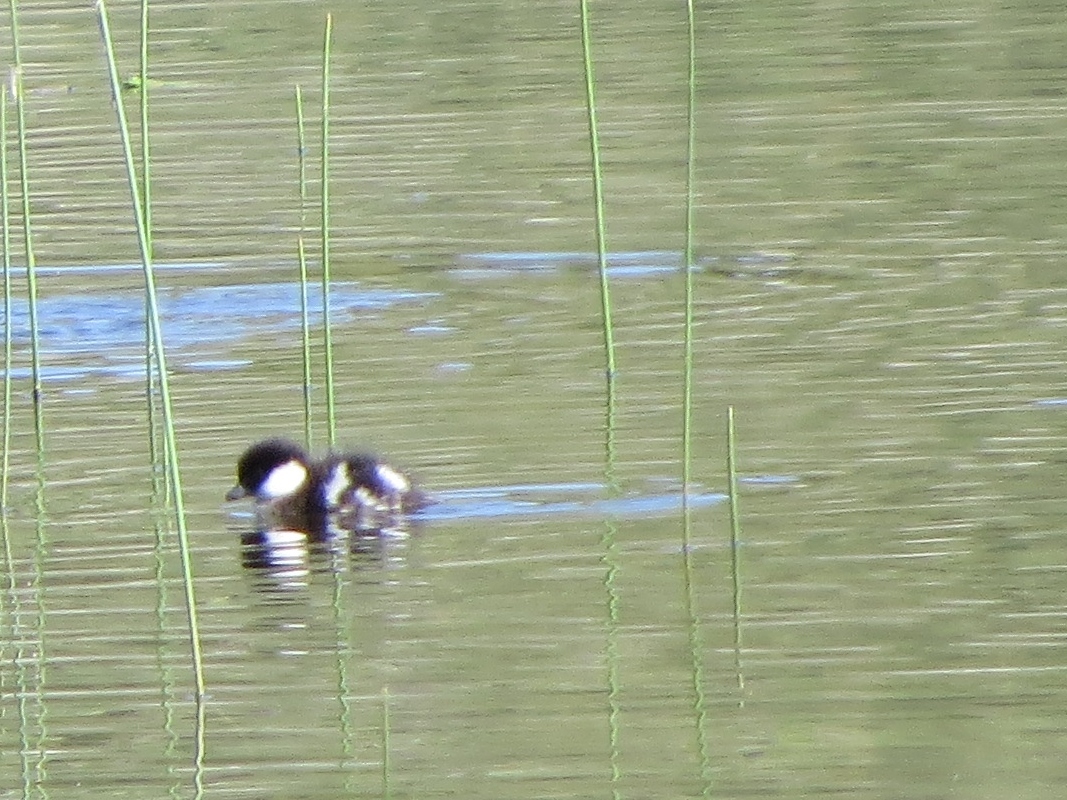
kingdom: Animalia
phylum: Chordata
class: Aves
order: Anseriformes
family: Anatidae
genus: Bucephala
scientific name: Bucephala albeola
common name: Bufflehead
